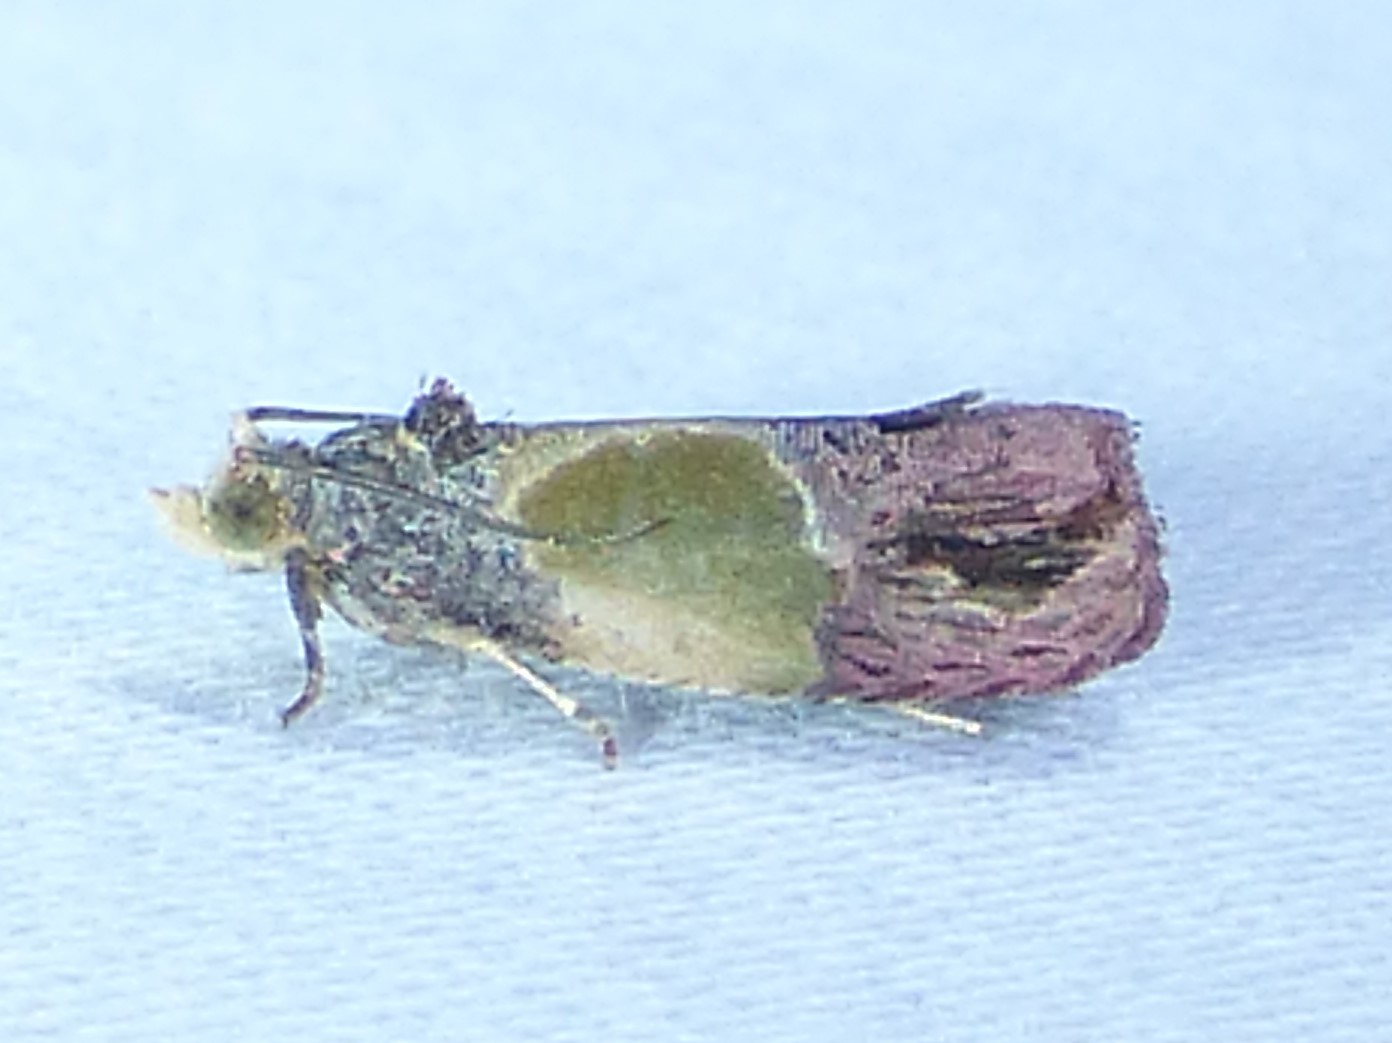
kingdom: Animalia
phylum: Arthropoda
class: Insecta
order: Lepidoptera
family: Tortricidae
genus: Eumarozia
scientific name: Eumarozia malachitana
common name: Sculptured moth
